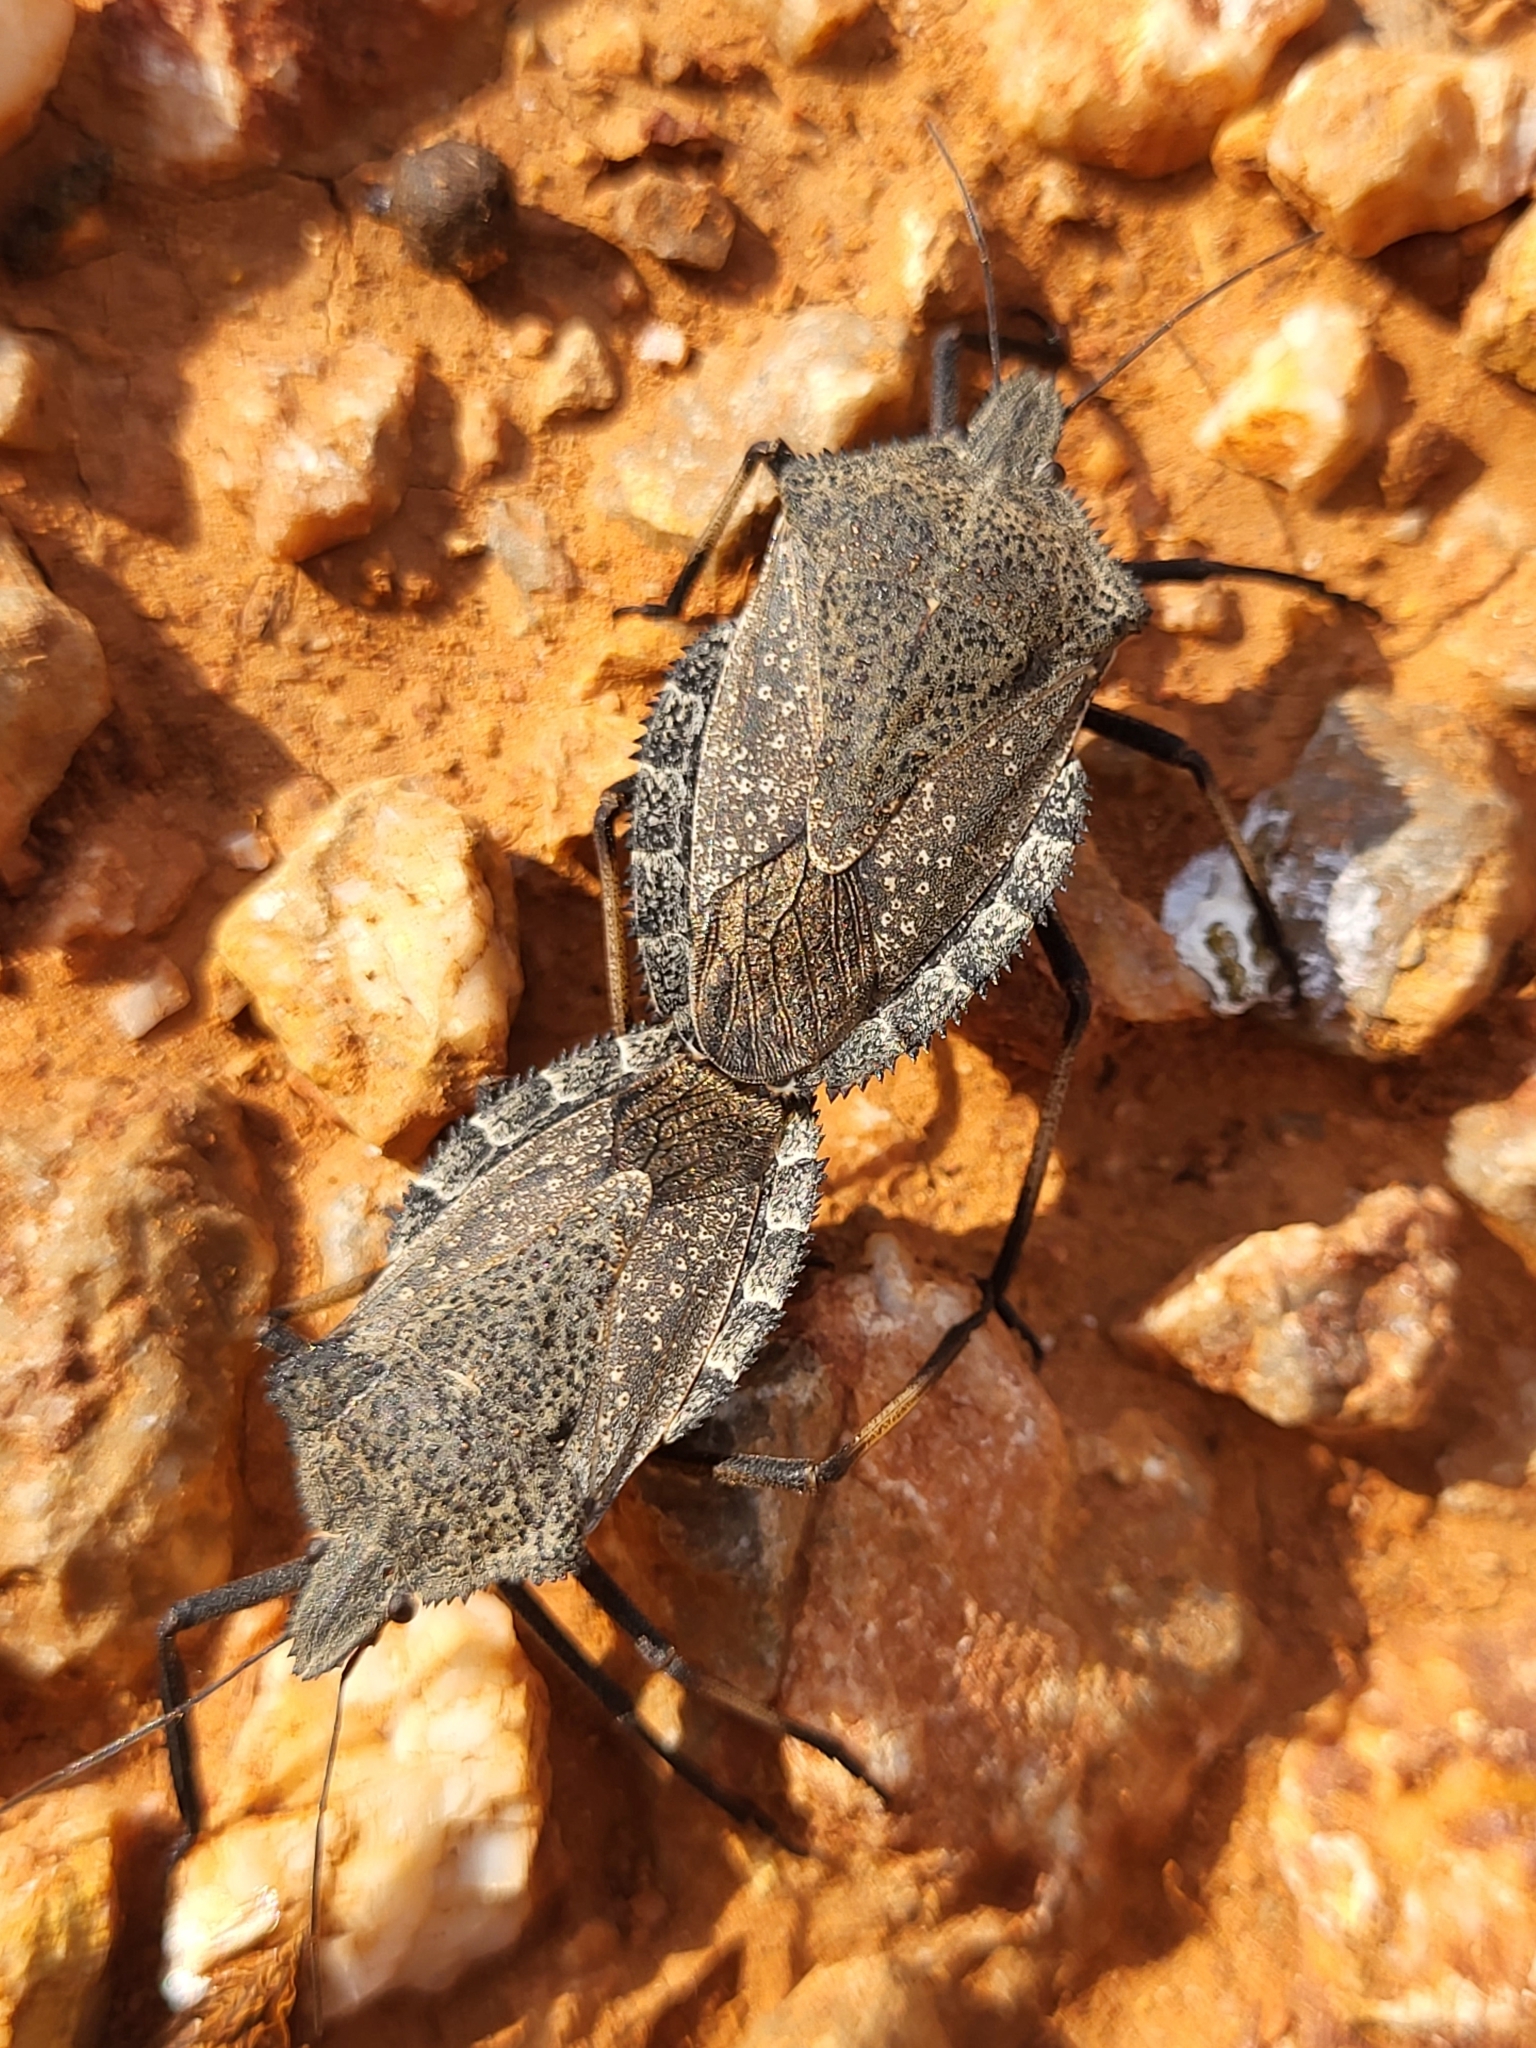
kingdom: Animalia
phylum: Arthropoda
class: Insecta
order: Hemiptera
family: Pentatomidae
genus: Mustha
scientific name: Mustha spinosula
